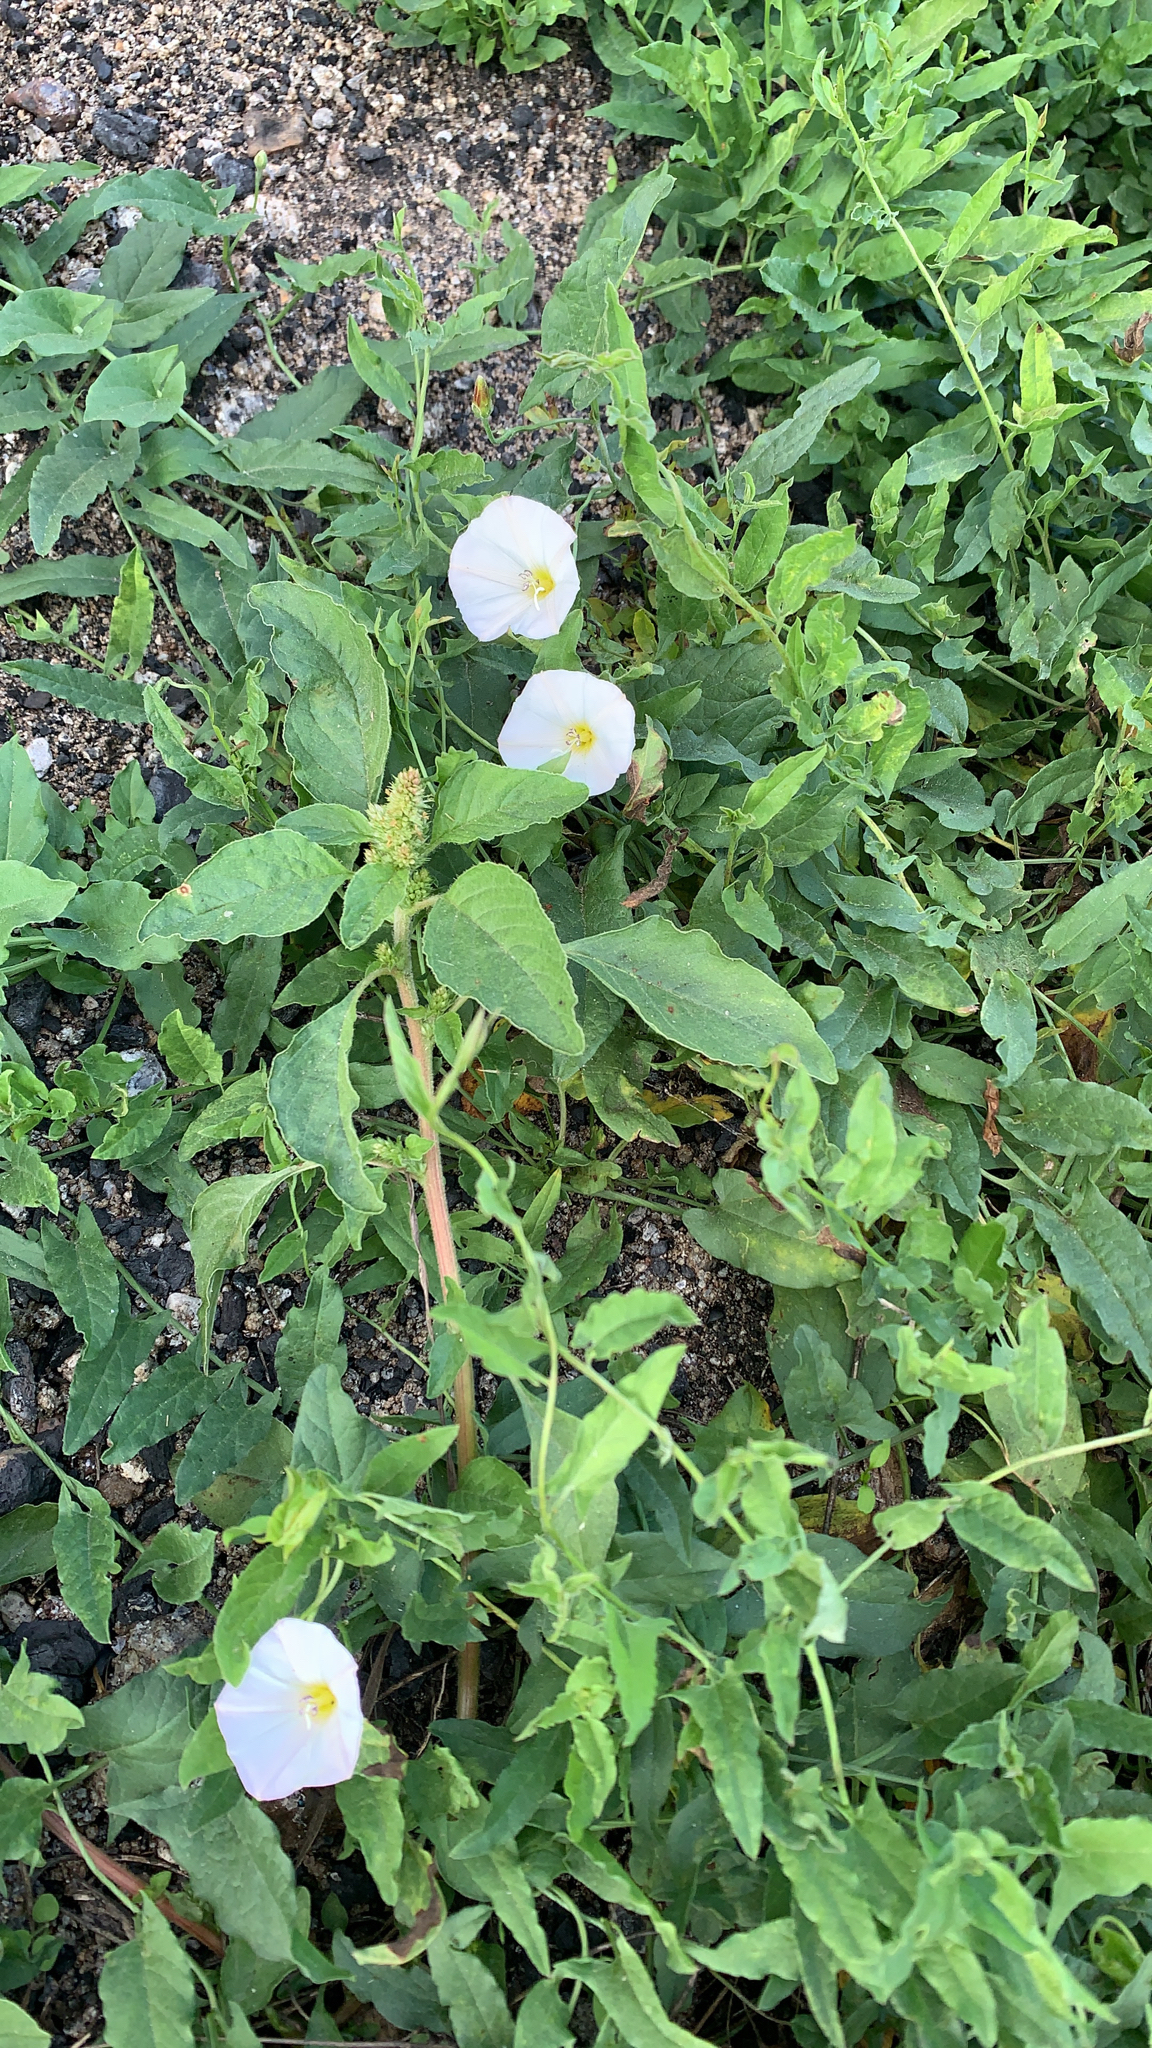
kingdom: Plantae
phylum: Tracheophyta
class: Magnoliopsida
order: Solanales
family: Convolvulaceae
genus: Convolvulus
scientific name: Convolvulus arvensis
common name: Field bindweed
